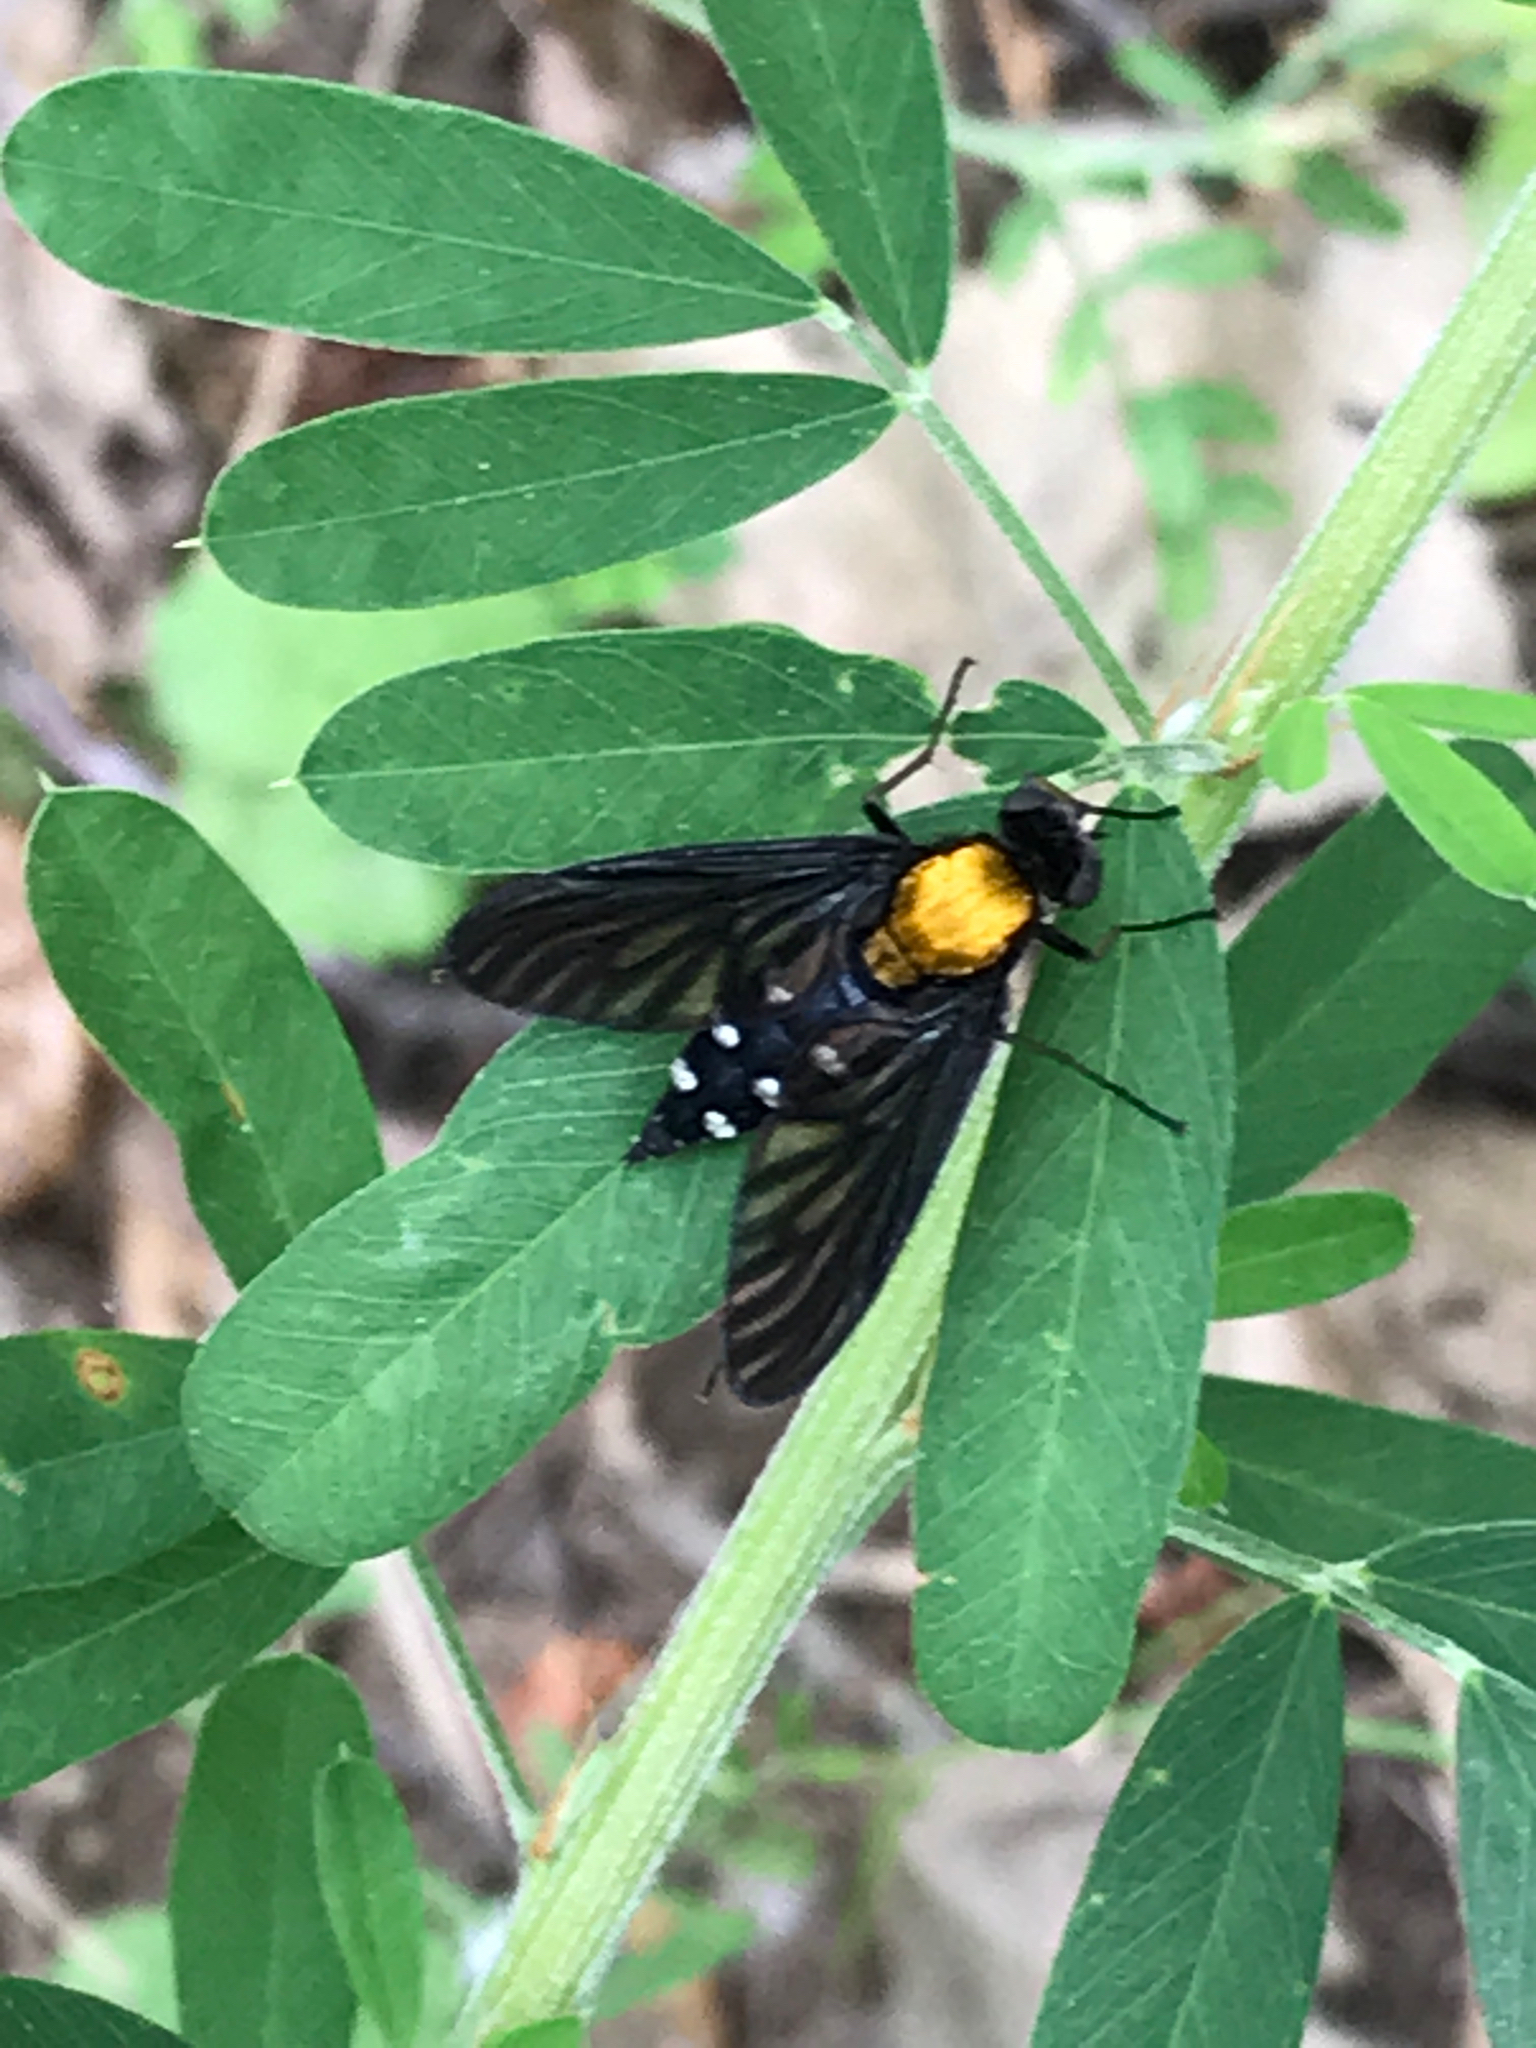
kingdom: Animalia
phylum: Arthropoda
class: Insecta
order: Diptera
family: Rhagionidae
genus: Chrysopilus
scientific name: Chrysopilus thoracicus
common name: Golden-backed snipe fly
